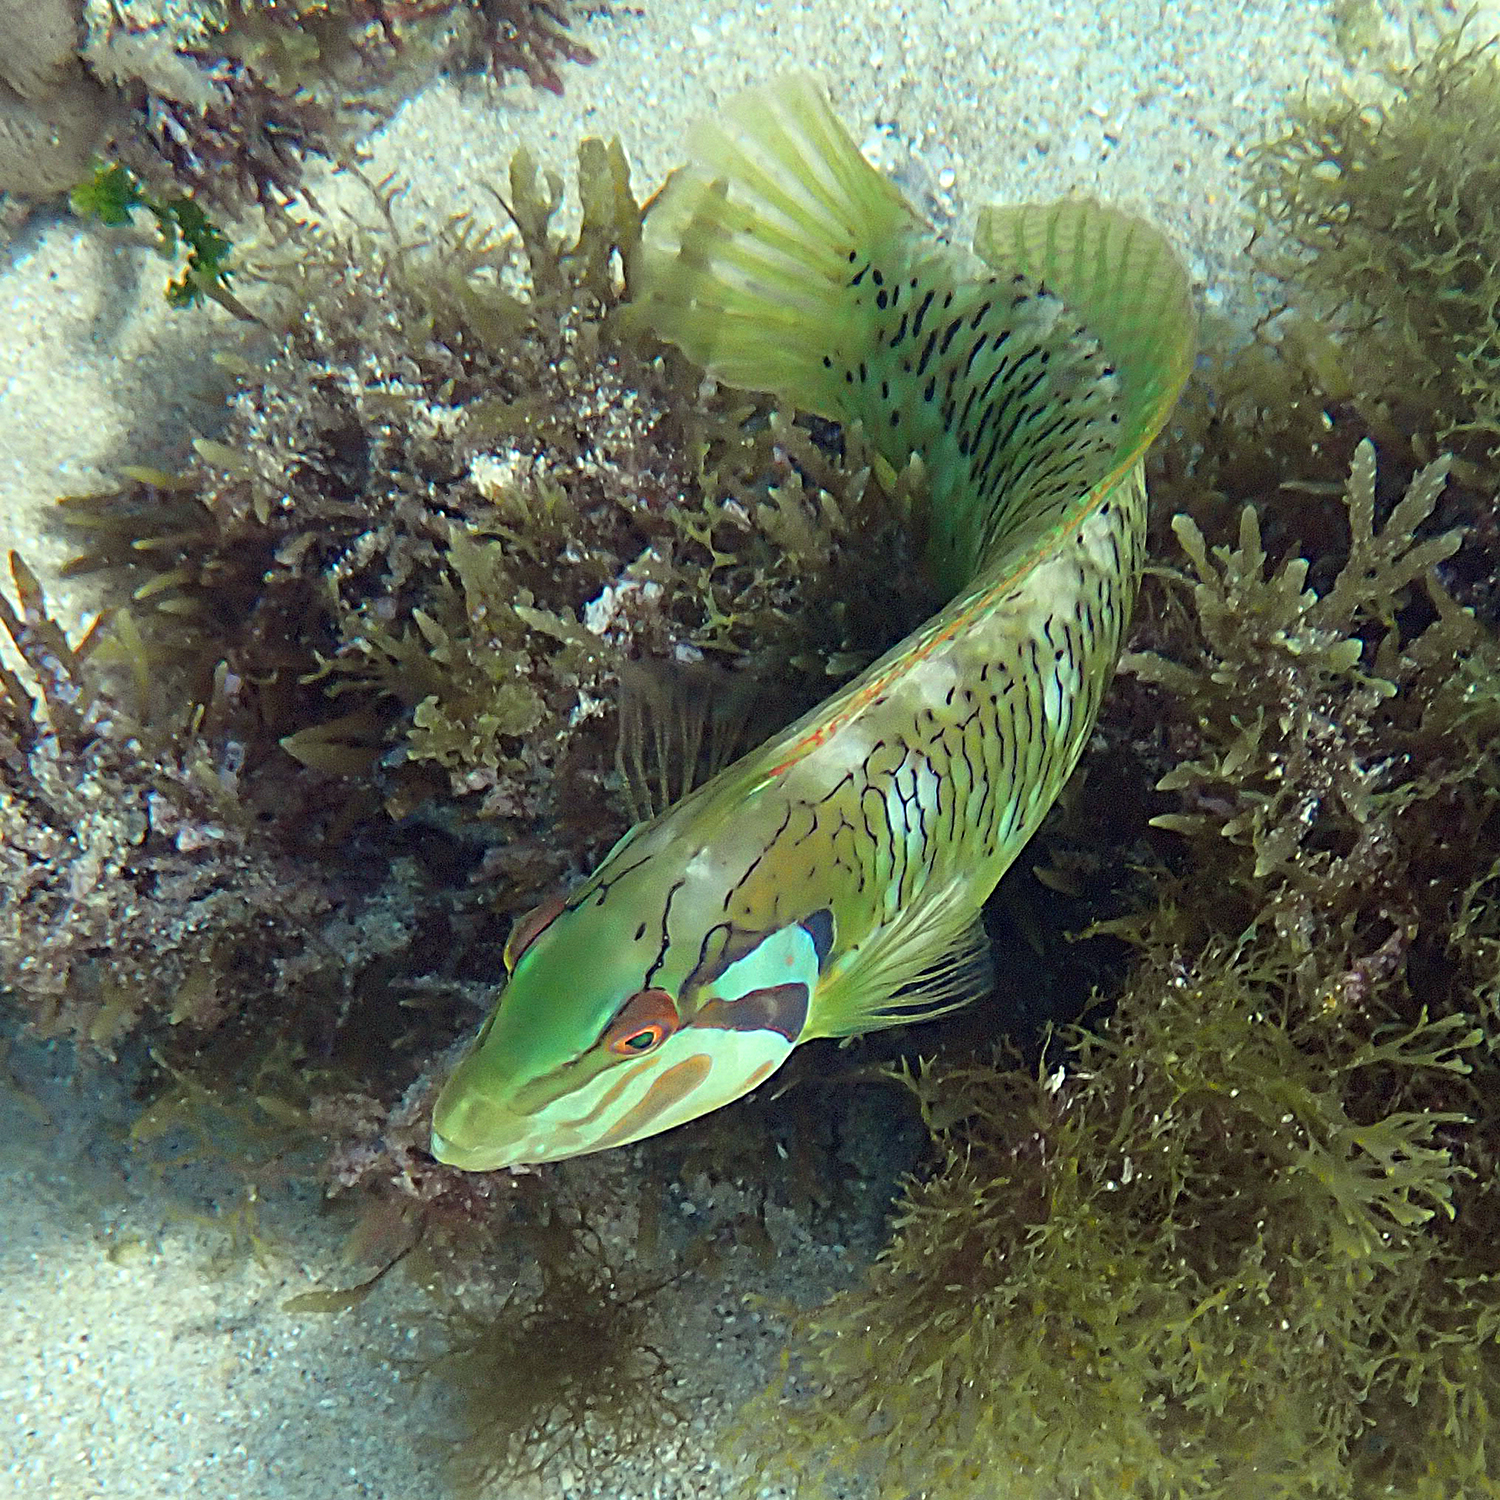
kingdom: Animalia
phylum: Chordata
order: Perciformes
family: Labridae
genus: Novaculoides
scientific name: Novaculoides macrolepidotus
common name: Seagrass wrasse
